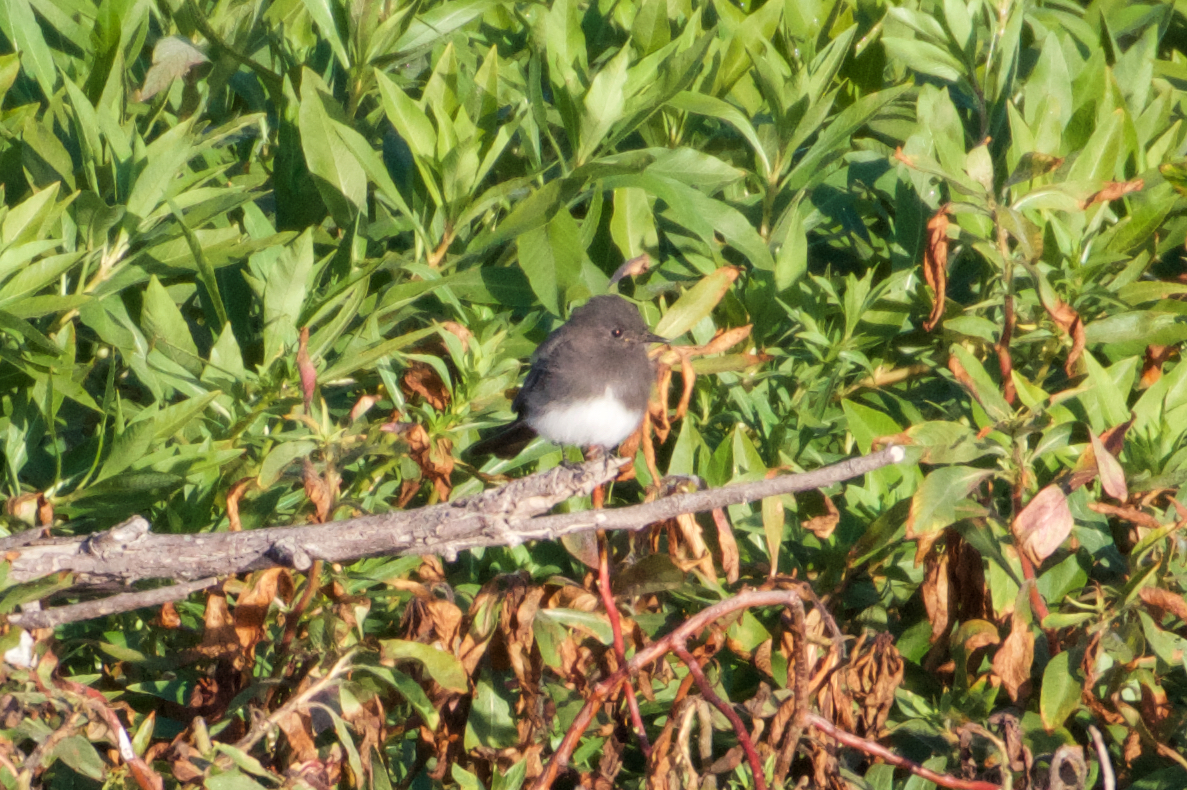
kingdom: Animalia
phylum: Chordata
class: Aves
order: Passeriformes
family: Tyrannidae
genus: Sayornis
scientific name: Sayornis nigricans
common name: Black phoebe
